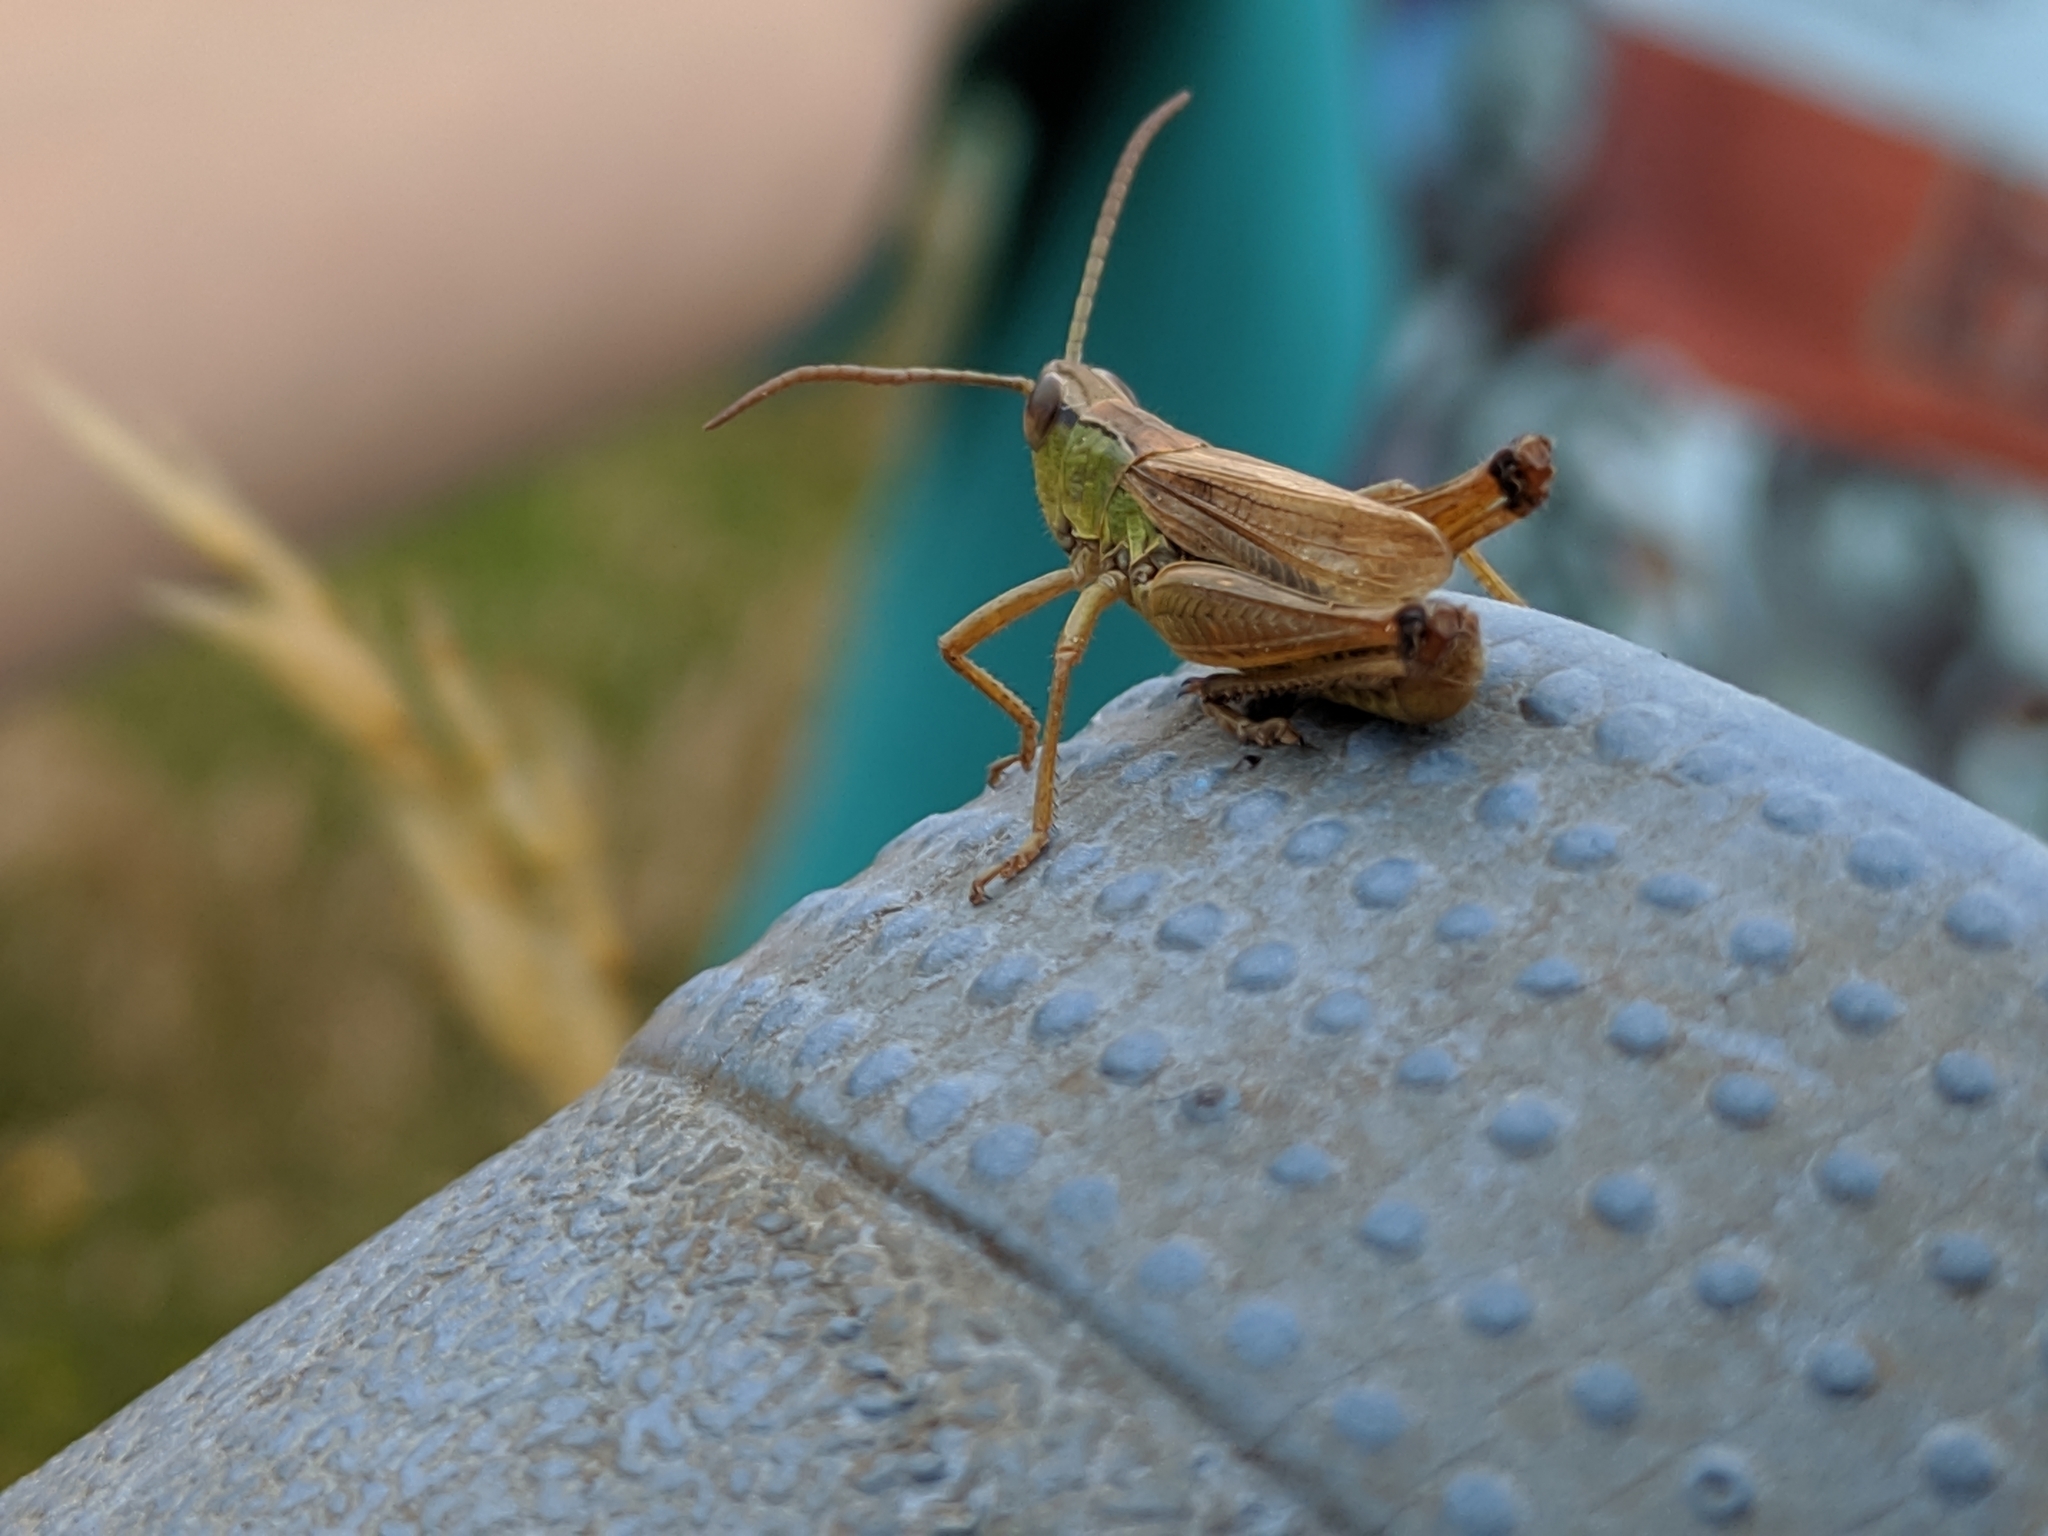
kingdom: Animalia
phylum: Arthropoda
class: Insecta
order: Orthoptera
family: Acrididae
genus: Pseudochorthippus
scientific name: Pseudochorthippus parallelus
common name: Meadow grasshopper
